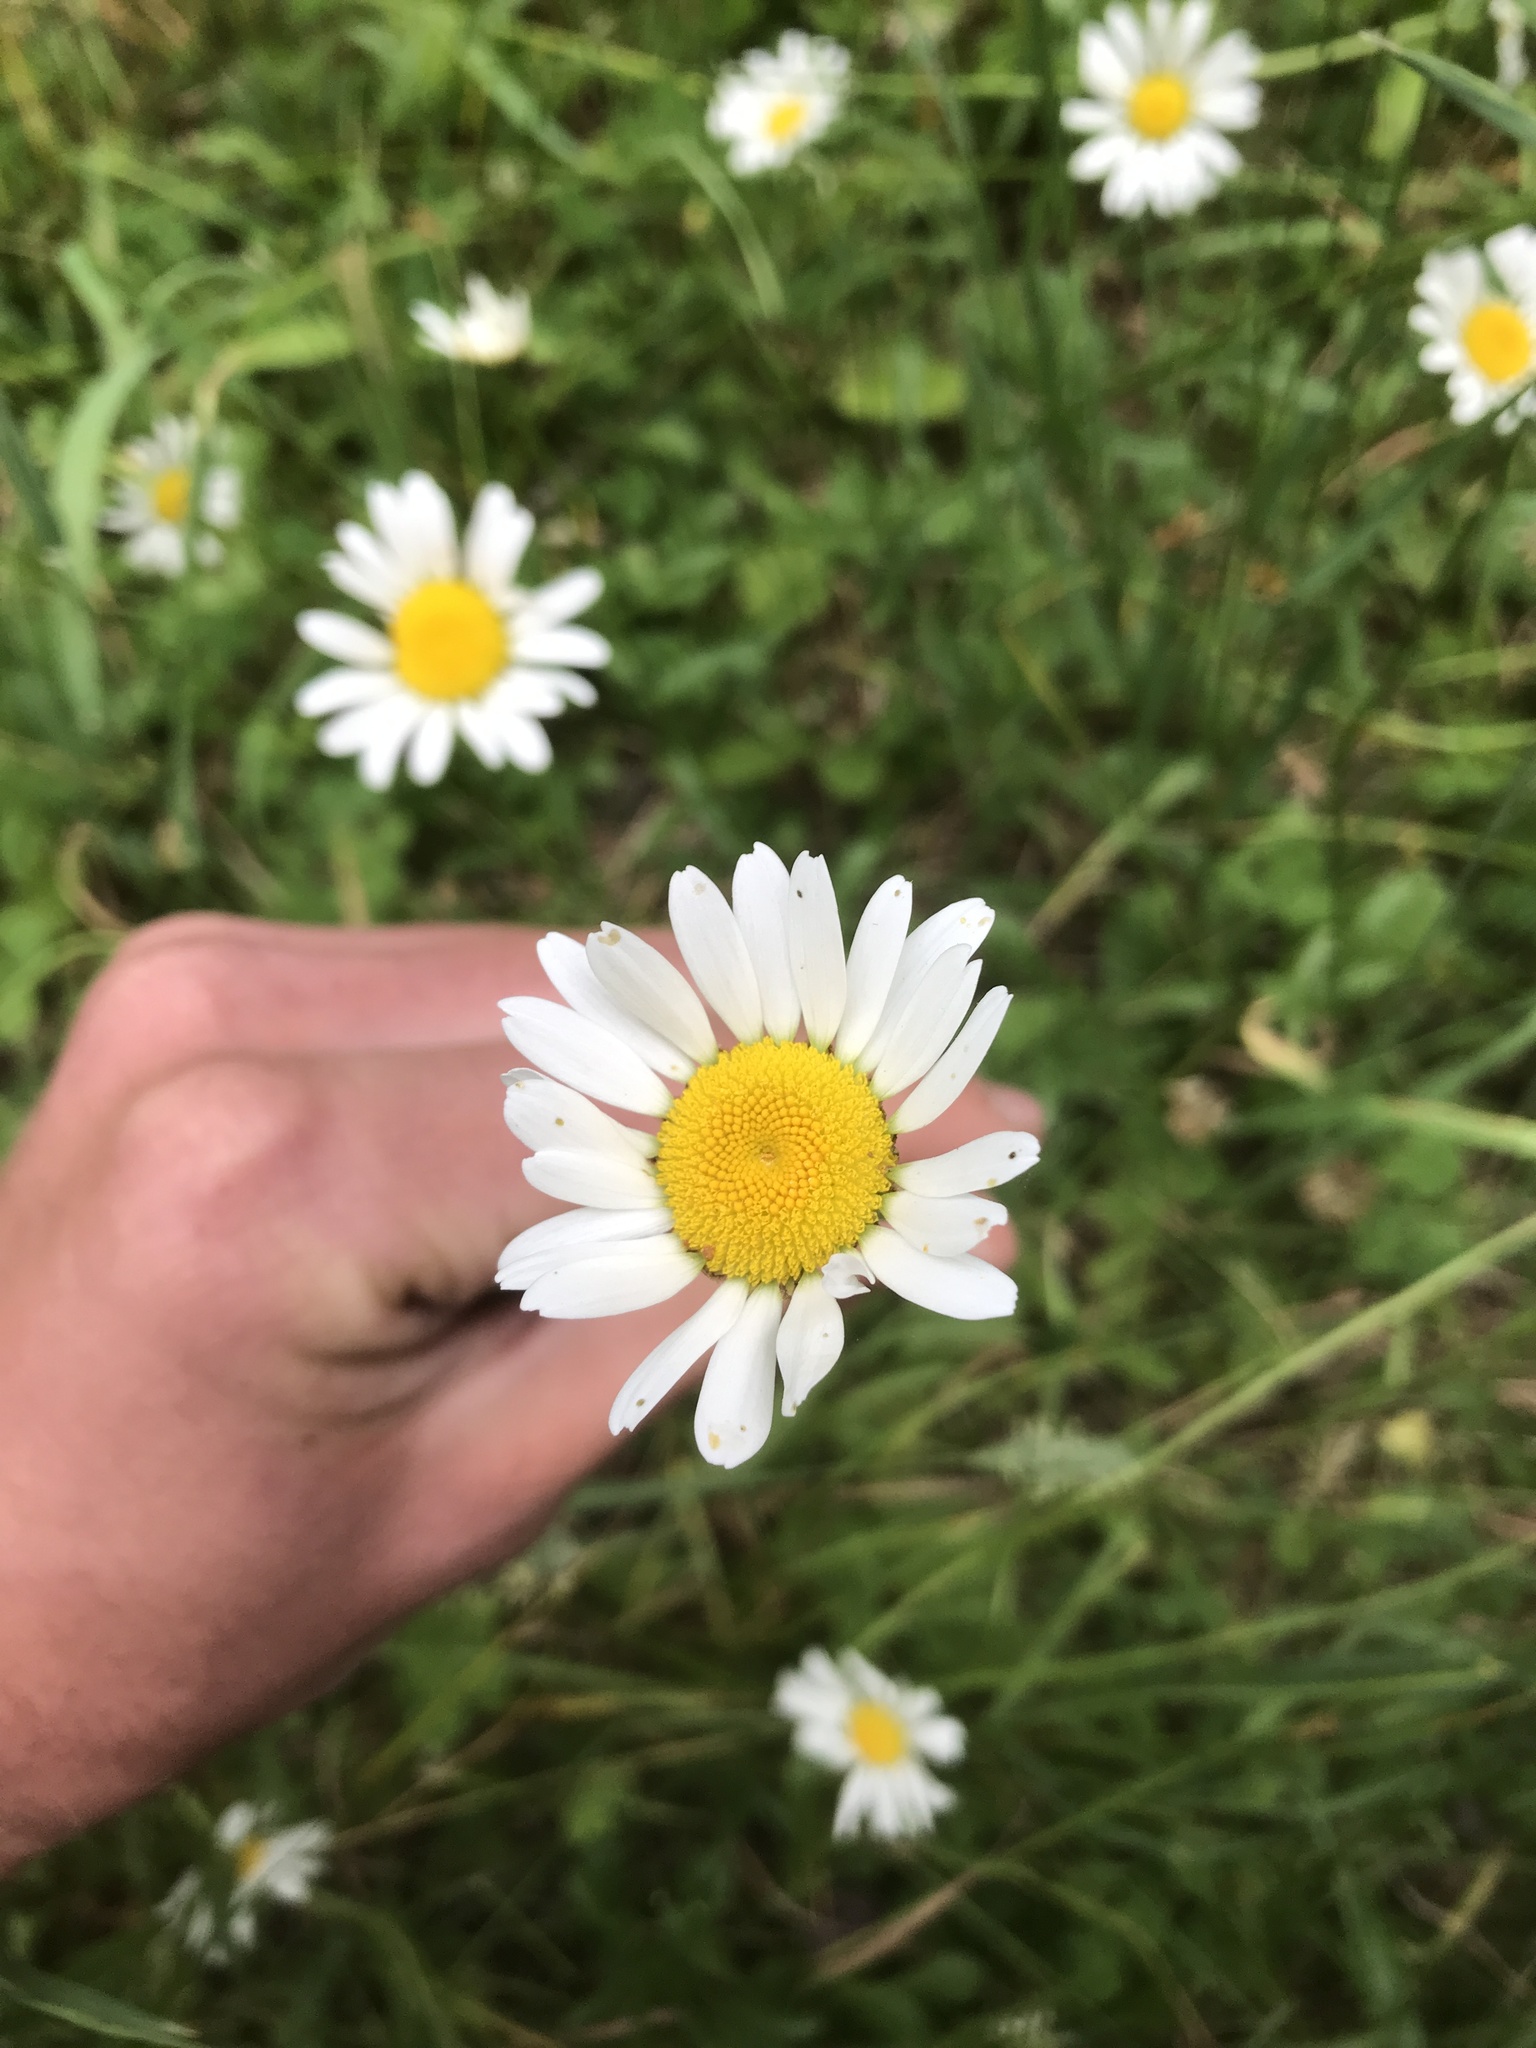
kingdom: Plantae
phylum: Tracheophyta
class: Magnoliopsida
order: Asterales
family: Asteraceae
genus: Leucanthemum
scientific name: Leucanthemum vulgare
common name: Oxeye daisy
